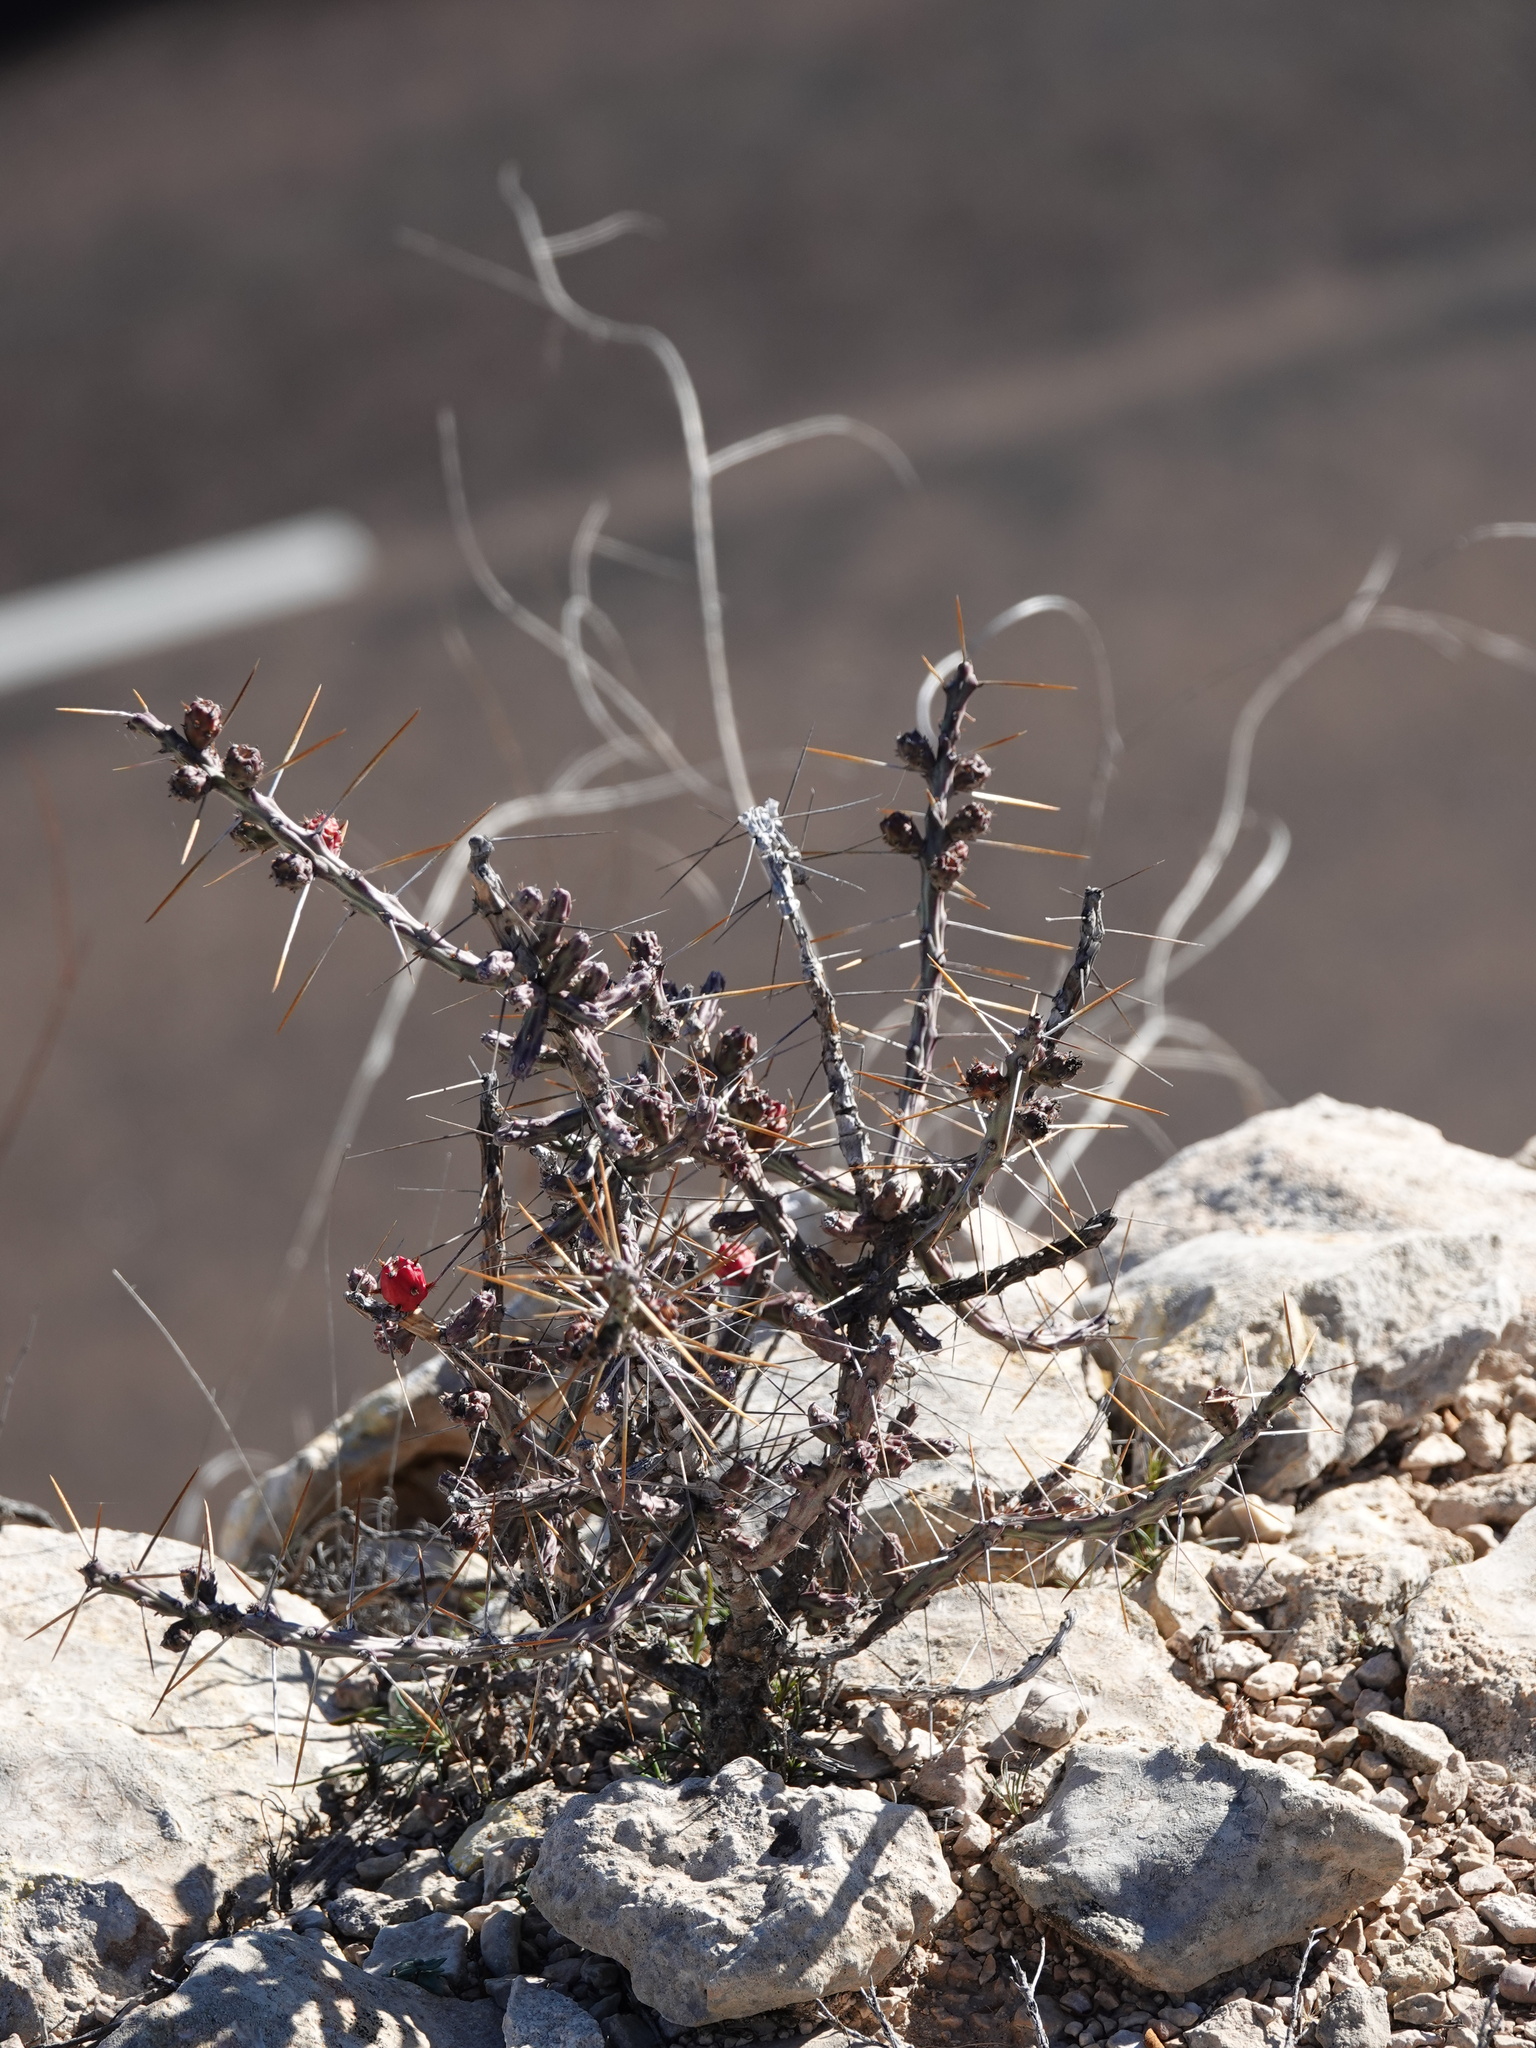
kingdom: Plantae
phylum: Tracheophyta
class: Magnoliopsida
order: Caryophyllales
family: Cactaceae
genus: Cylindropuntia
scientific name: Cylindropuntia leptocaulis
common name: Christmas cactus
